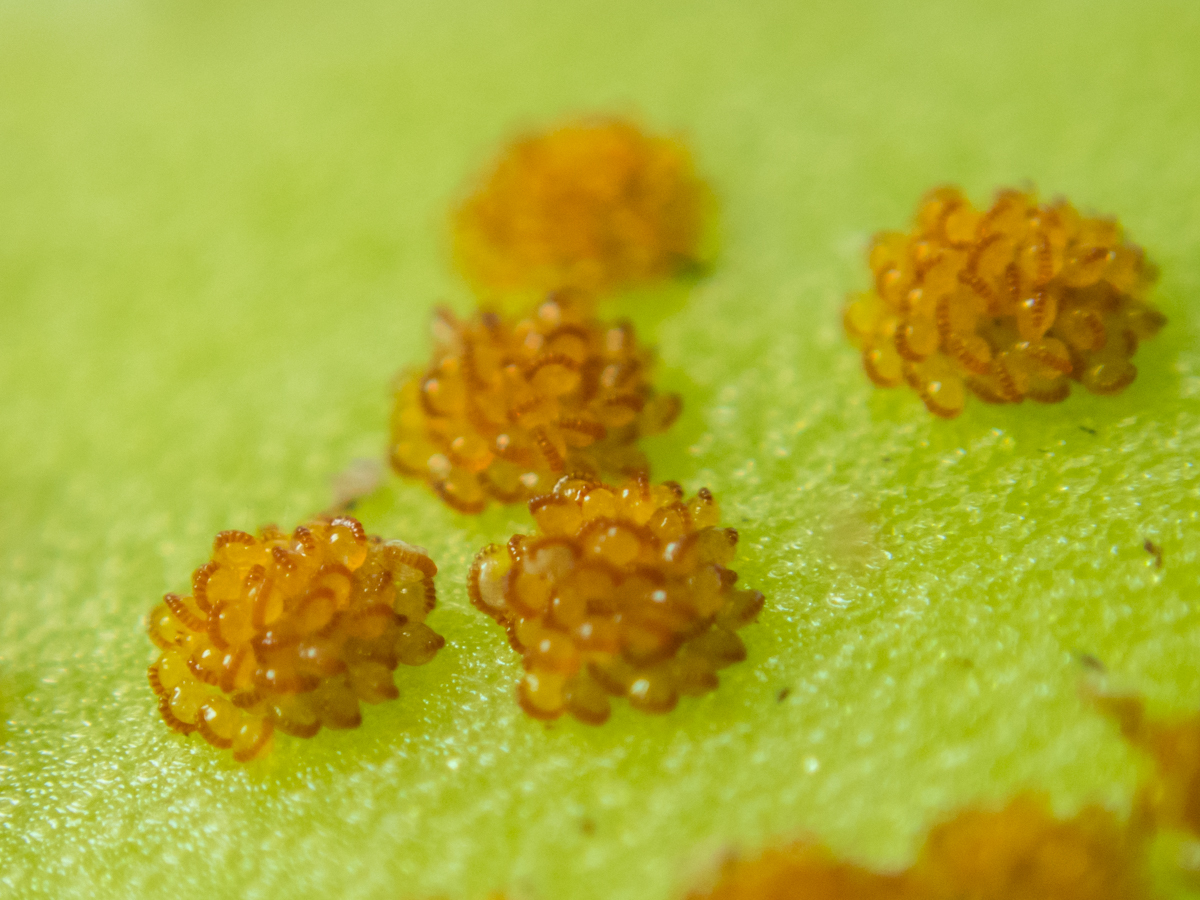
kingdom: Plantae
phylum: Tracheophyta
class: Polypodiopsida
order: Polypodiales
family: Polypodiaceae
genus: Microsorum
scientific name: Microsorum punctatum
